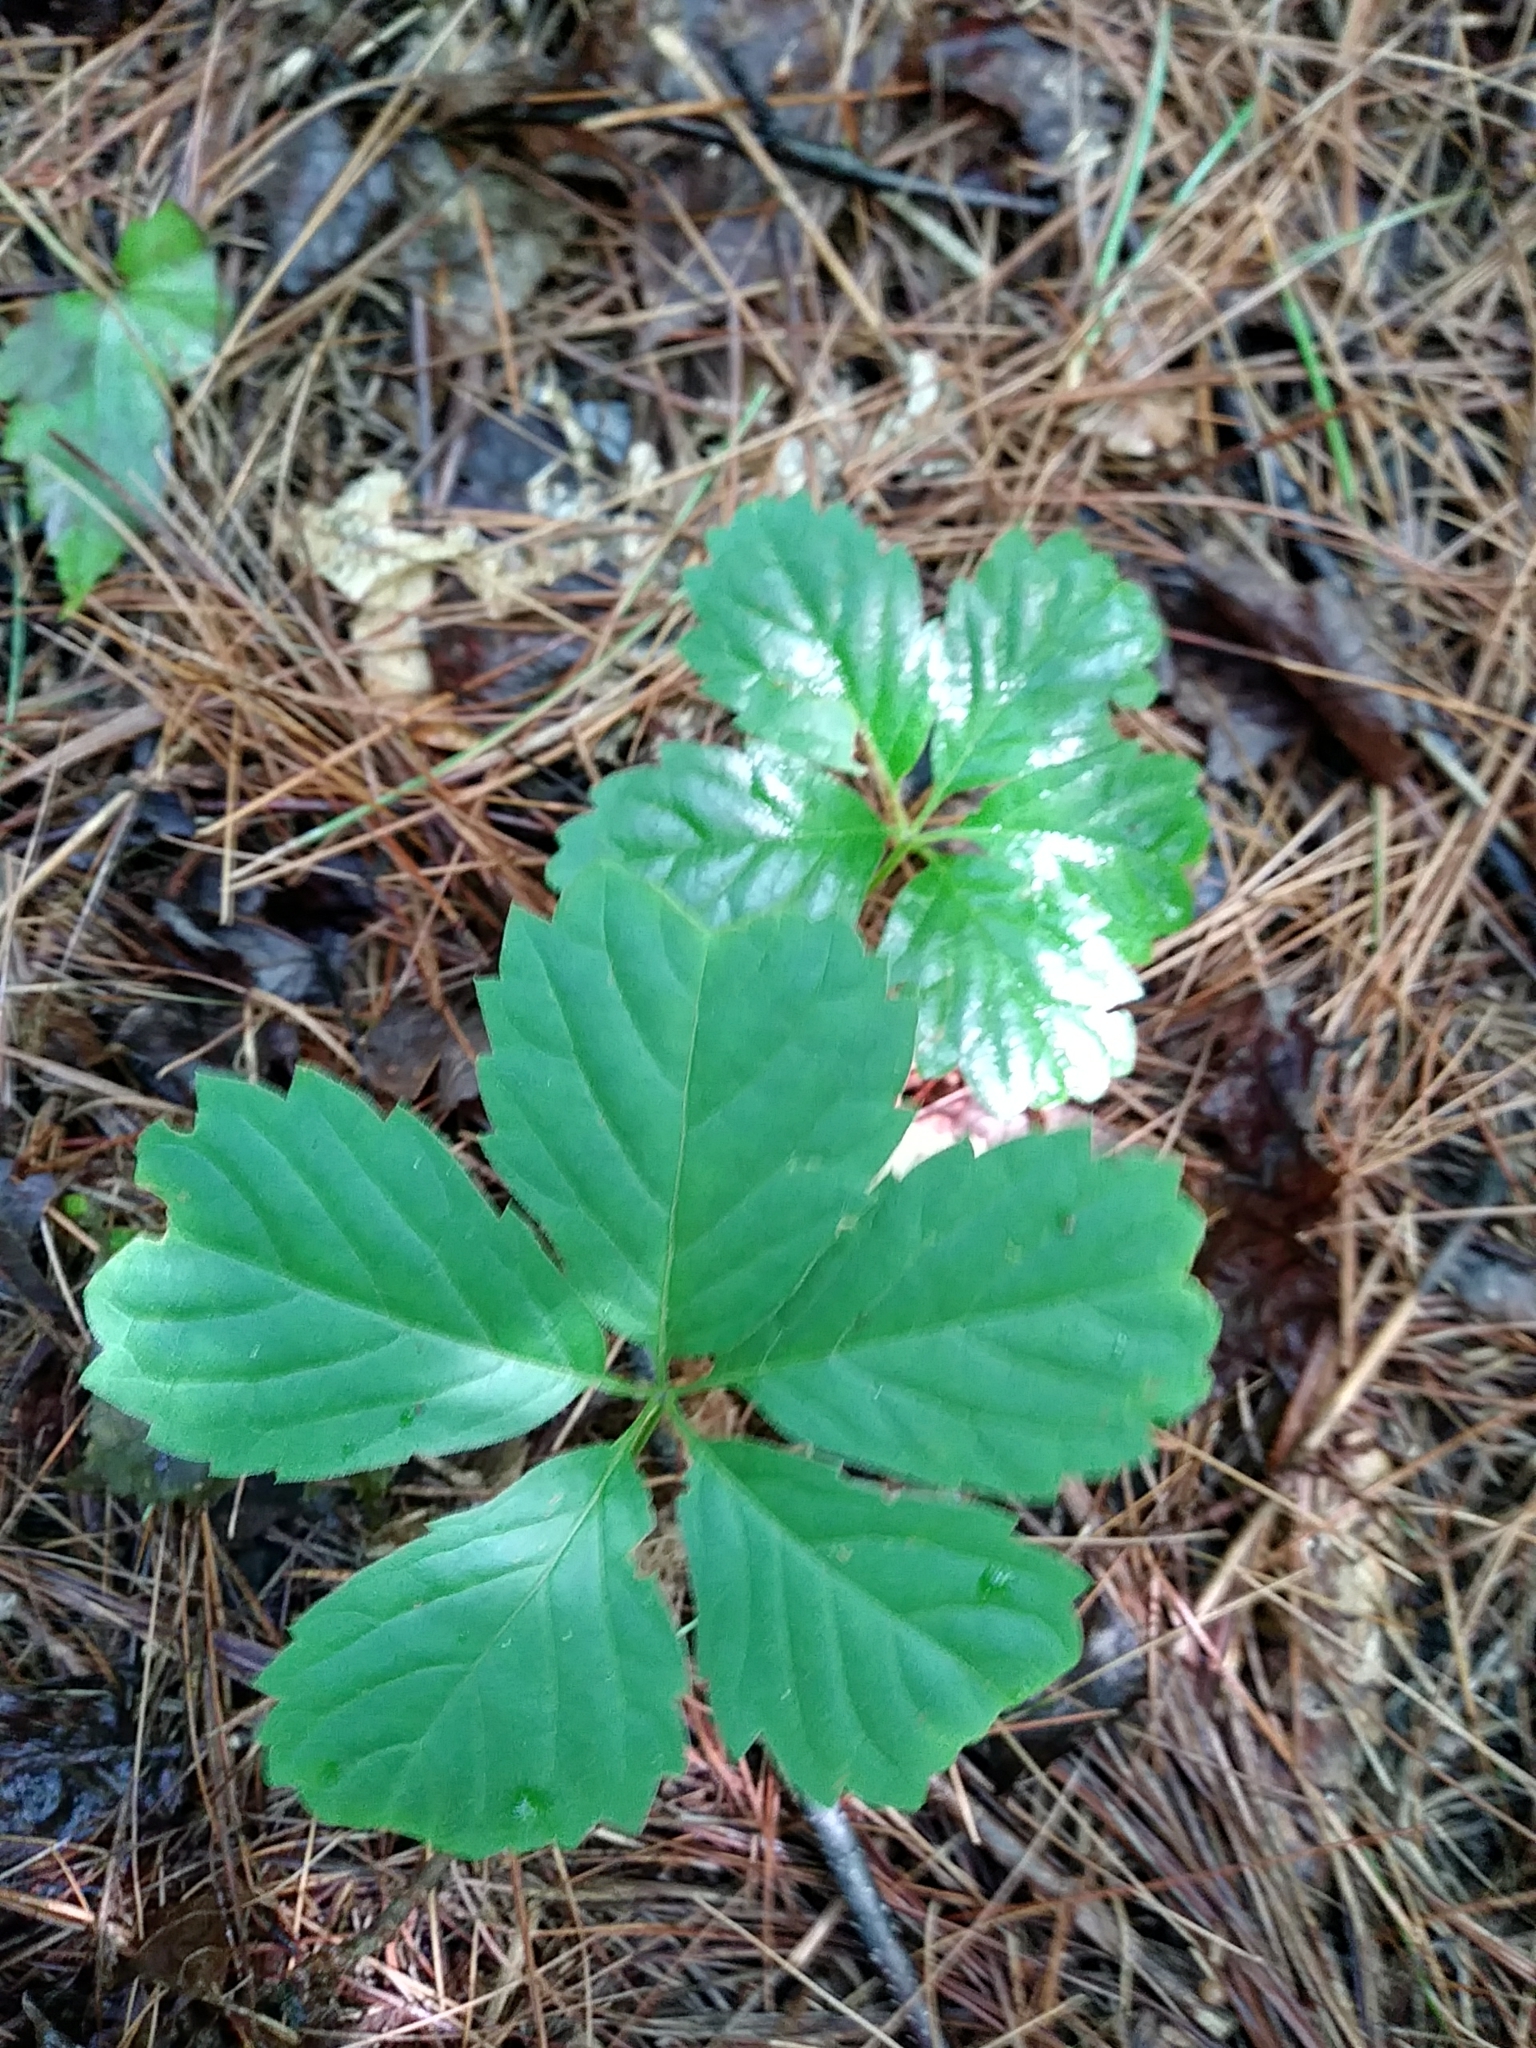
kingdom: Plantae
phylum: Tracheophyta
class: Magnoliopsida
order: Vitales
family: Vitaceae
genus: Parthenocissus
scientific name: Parthenocissus inserta
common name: False virginia-creeper
